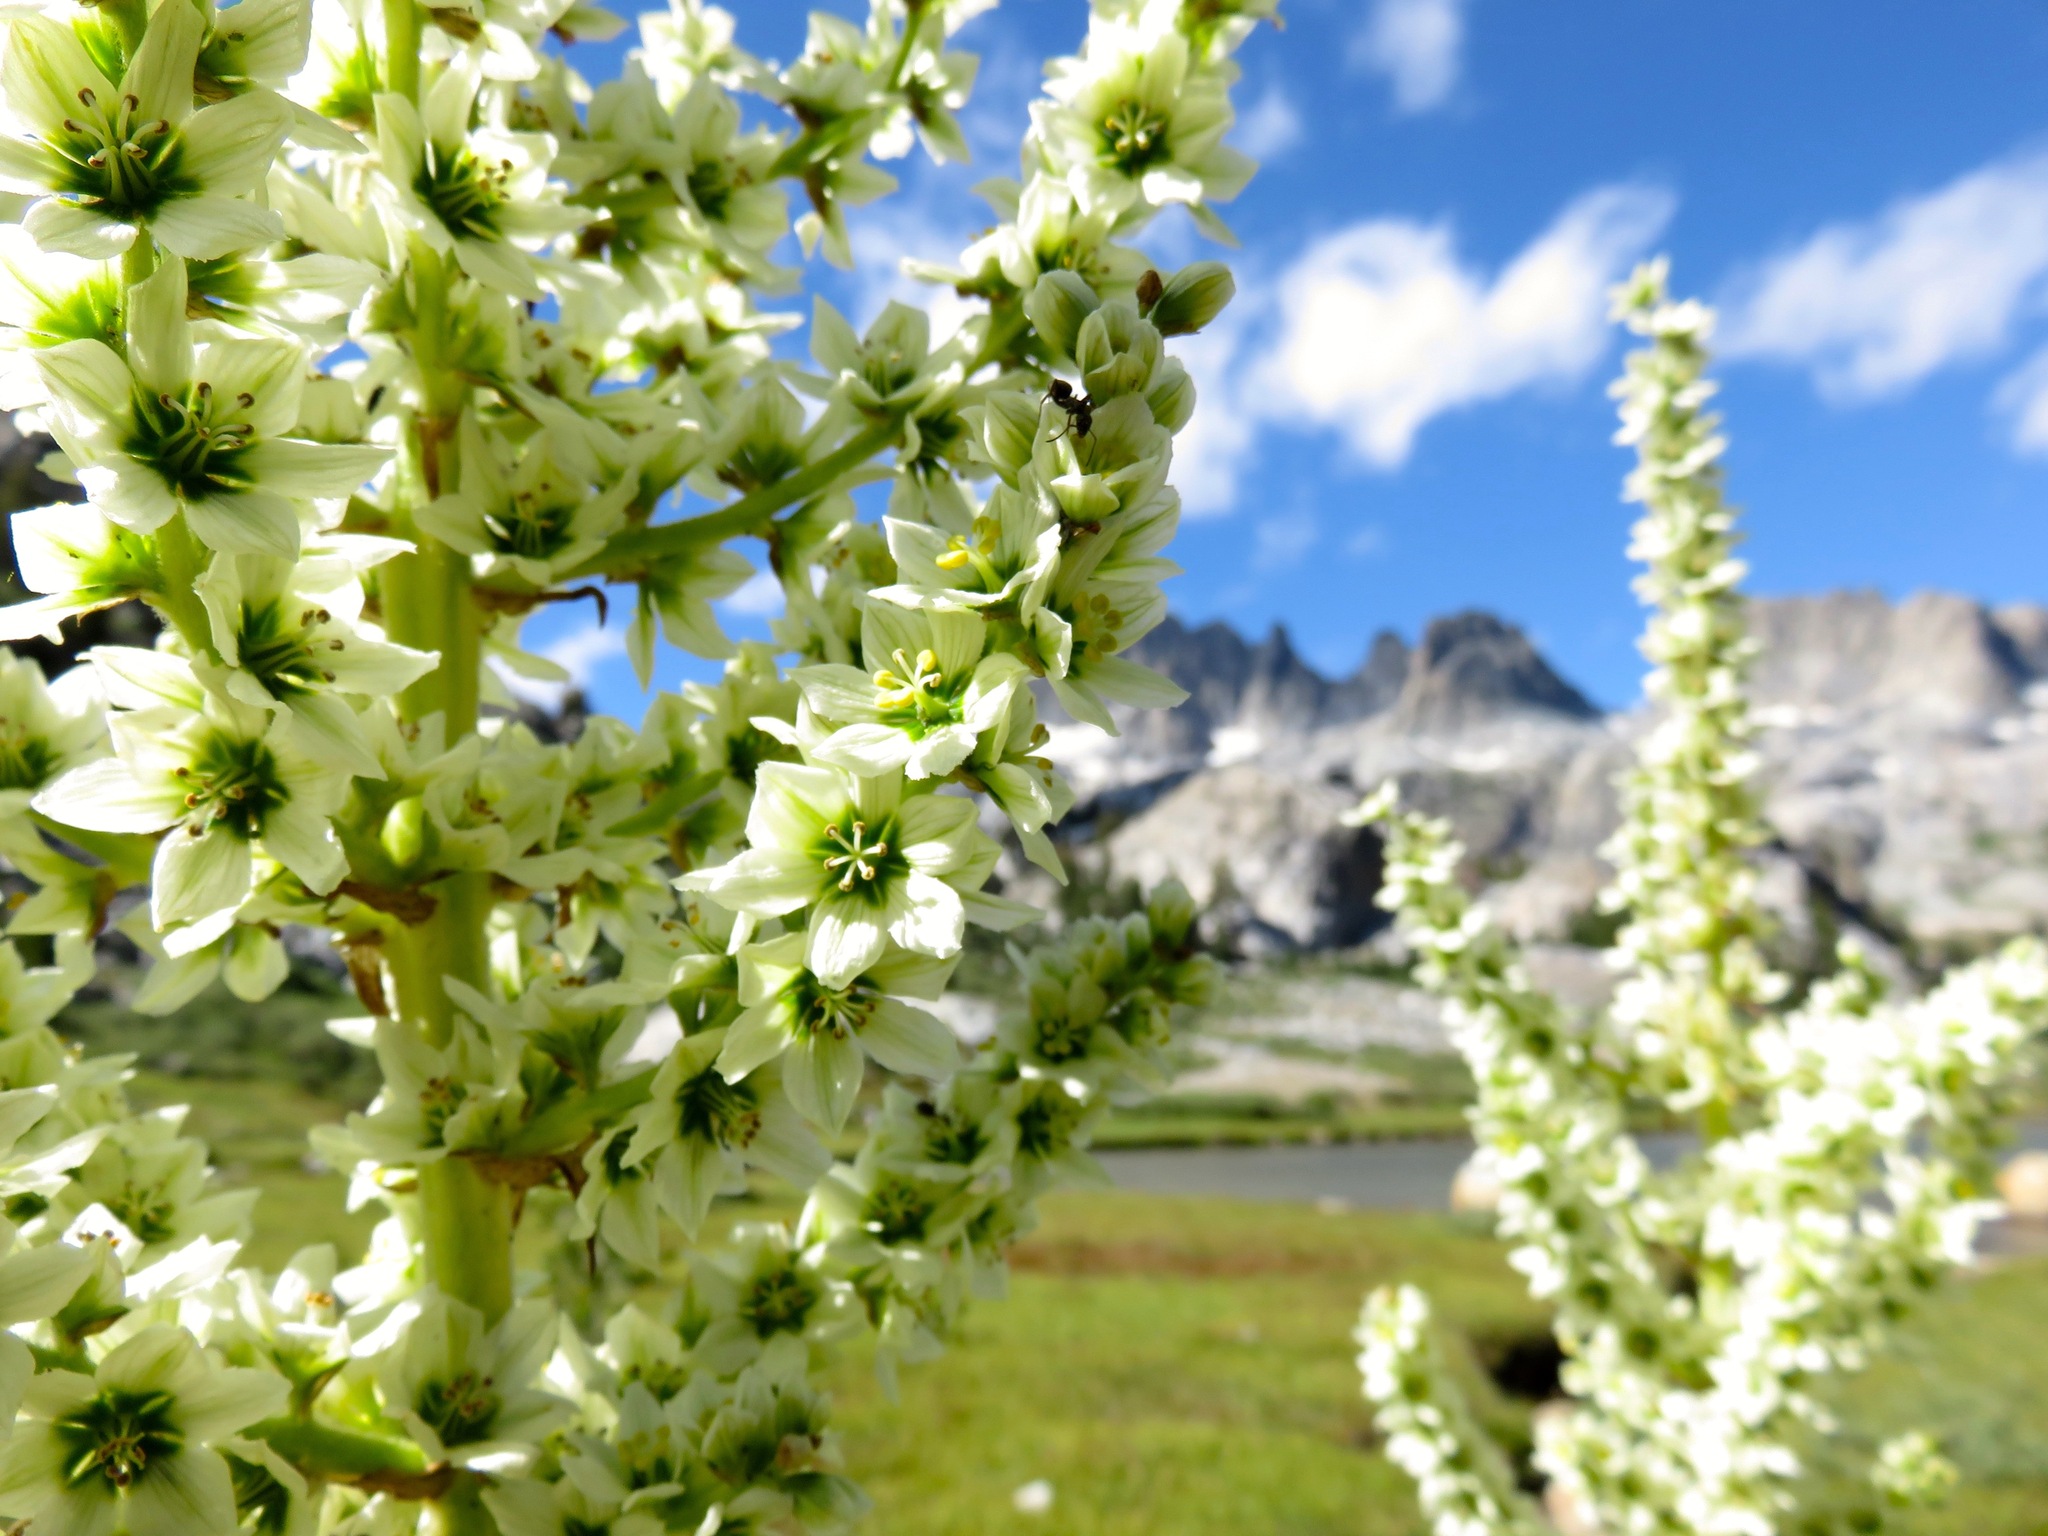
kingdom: Plantae
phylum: Tracheophyta
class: Liliopsida
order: Liliales
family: Melanthiaceae
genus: Veratrum
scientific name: Veratrum californicum
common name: California veratrum
